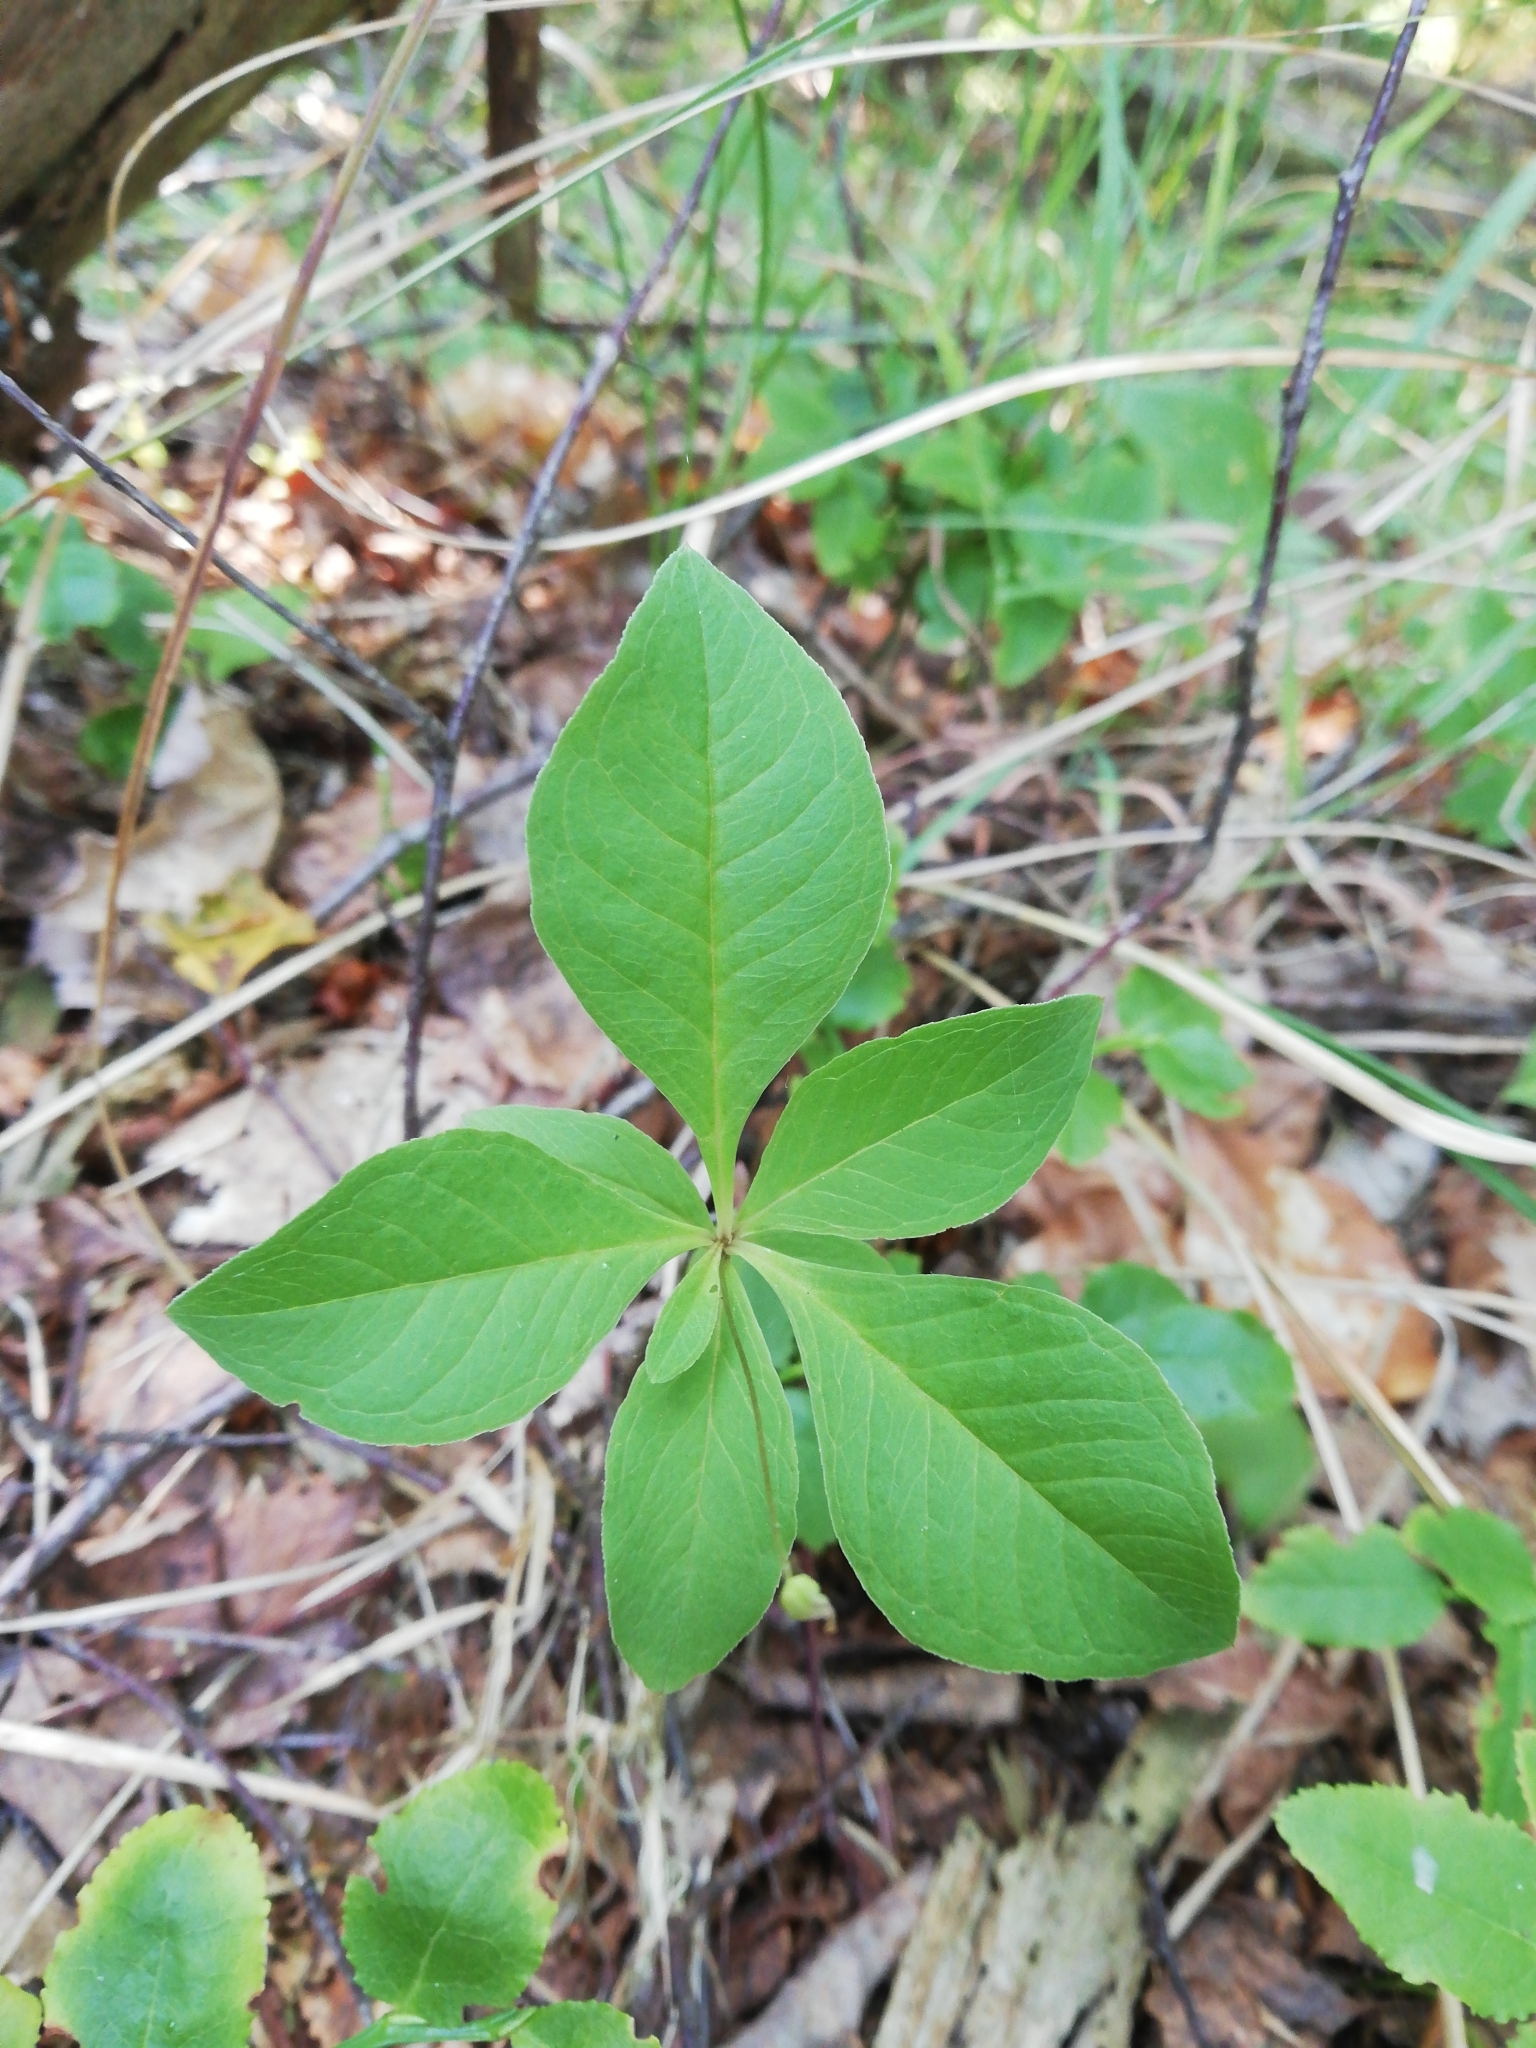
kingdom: Plantae
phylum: Tracheophyta
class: Magnoliopsida
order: Ericales
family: Primulaceae
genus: Lysimachia
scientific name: Lysimachia europaea
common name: Arctic starflower
